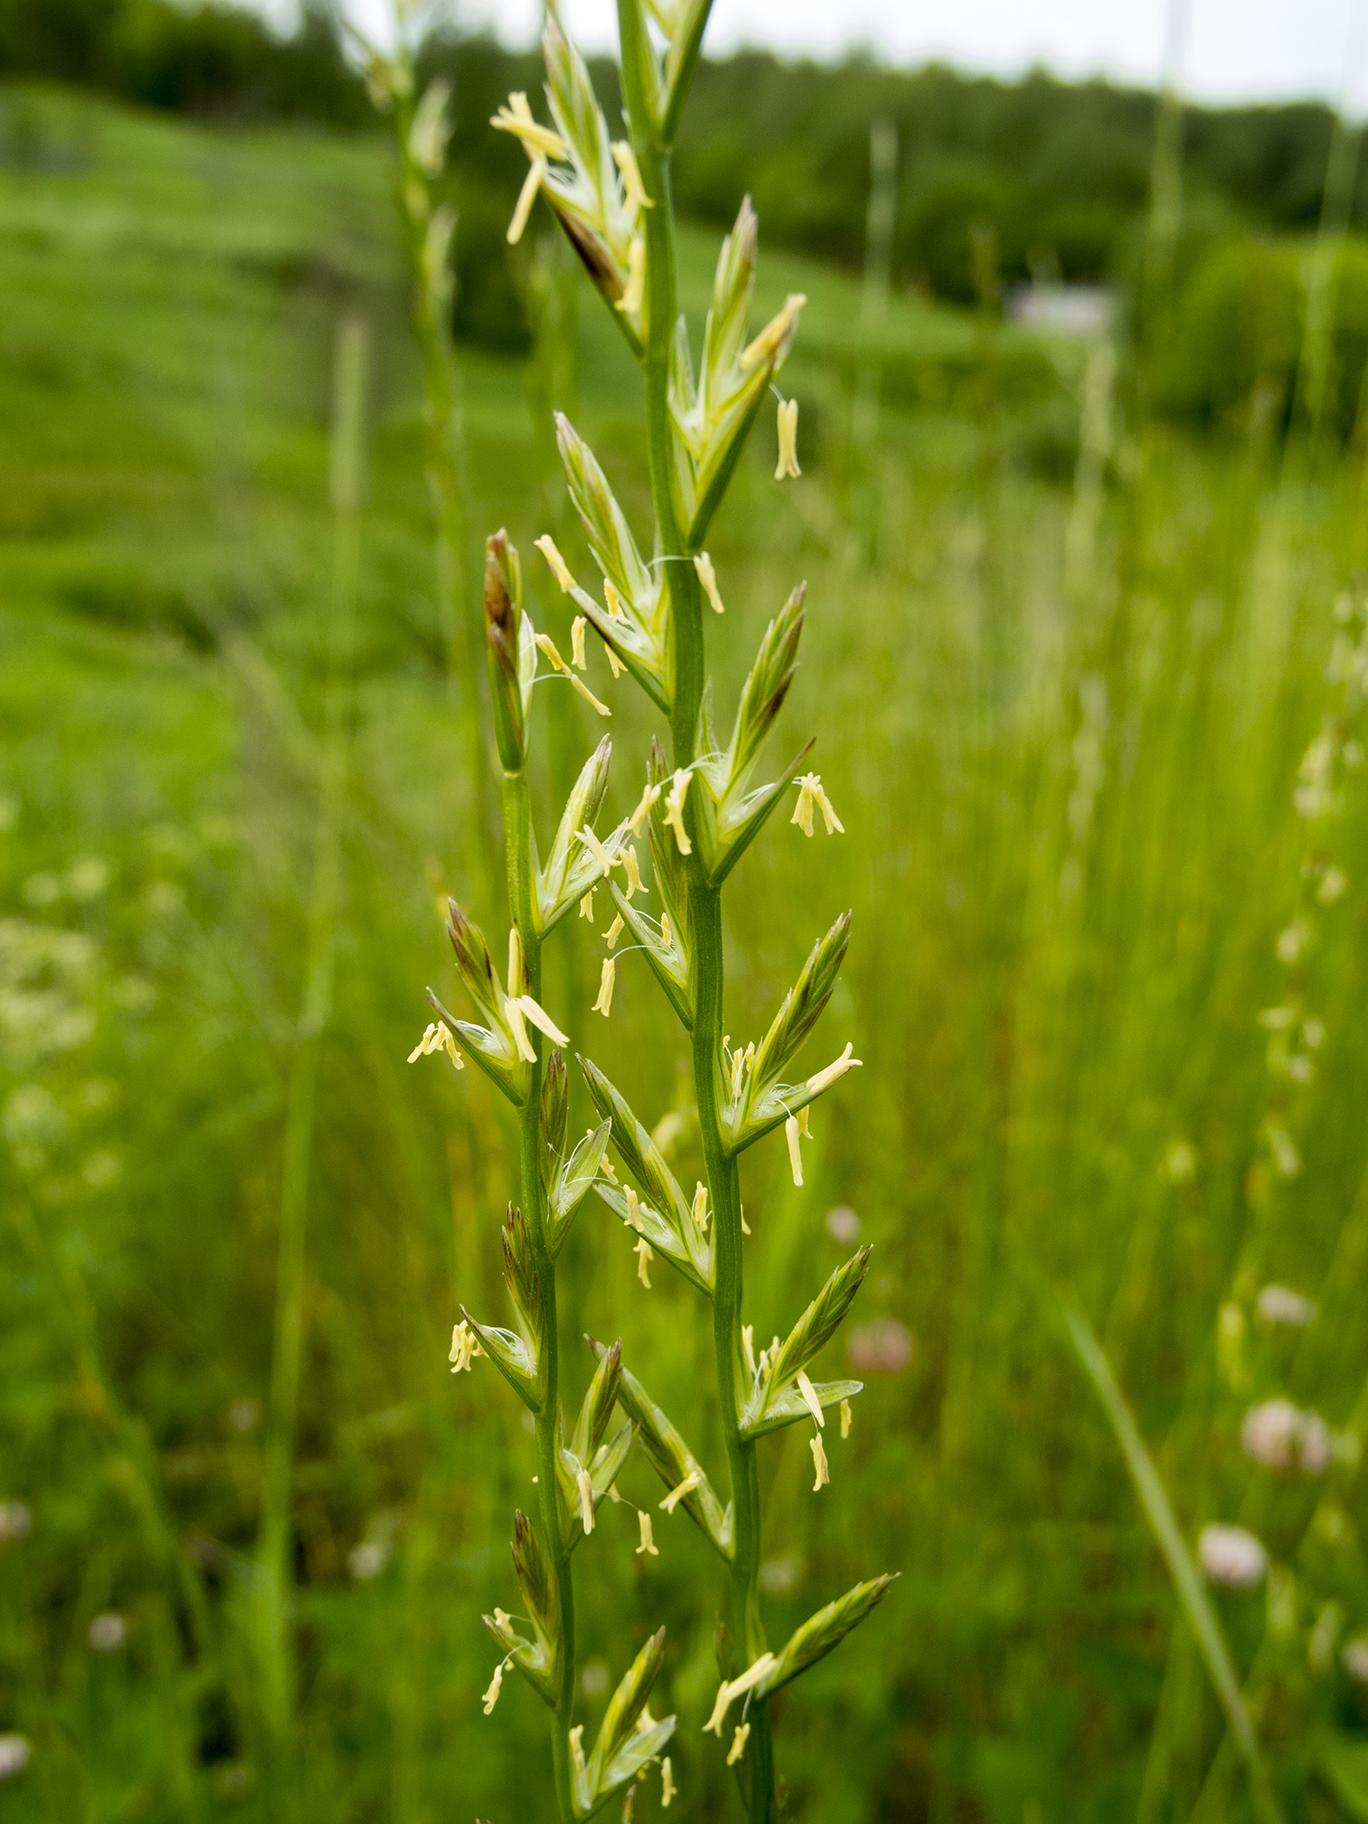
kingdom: Plantae
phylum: Tracheophyta
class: Liliopsida
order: Poales
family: Poaceae
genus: Lolium
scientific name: Lolium perenne
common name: Perennial ryegrass
